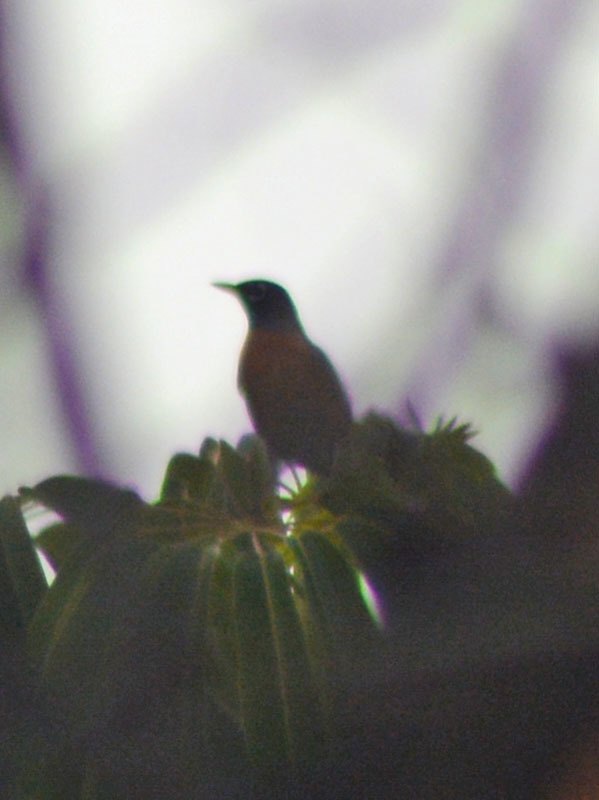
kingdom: Animalia
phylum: Chordata
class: Aves
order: Passeriformes
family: Turdidae
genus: Turdus
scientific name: Turdus migratorius
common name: American robin
